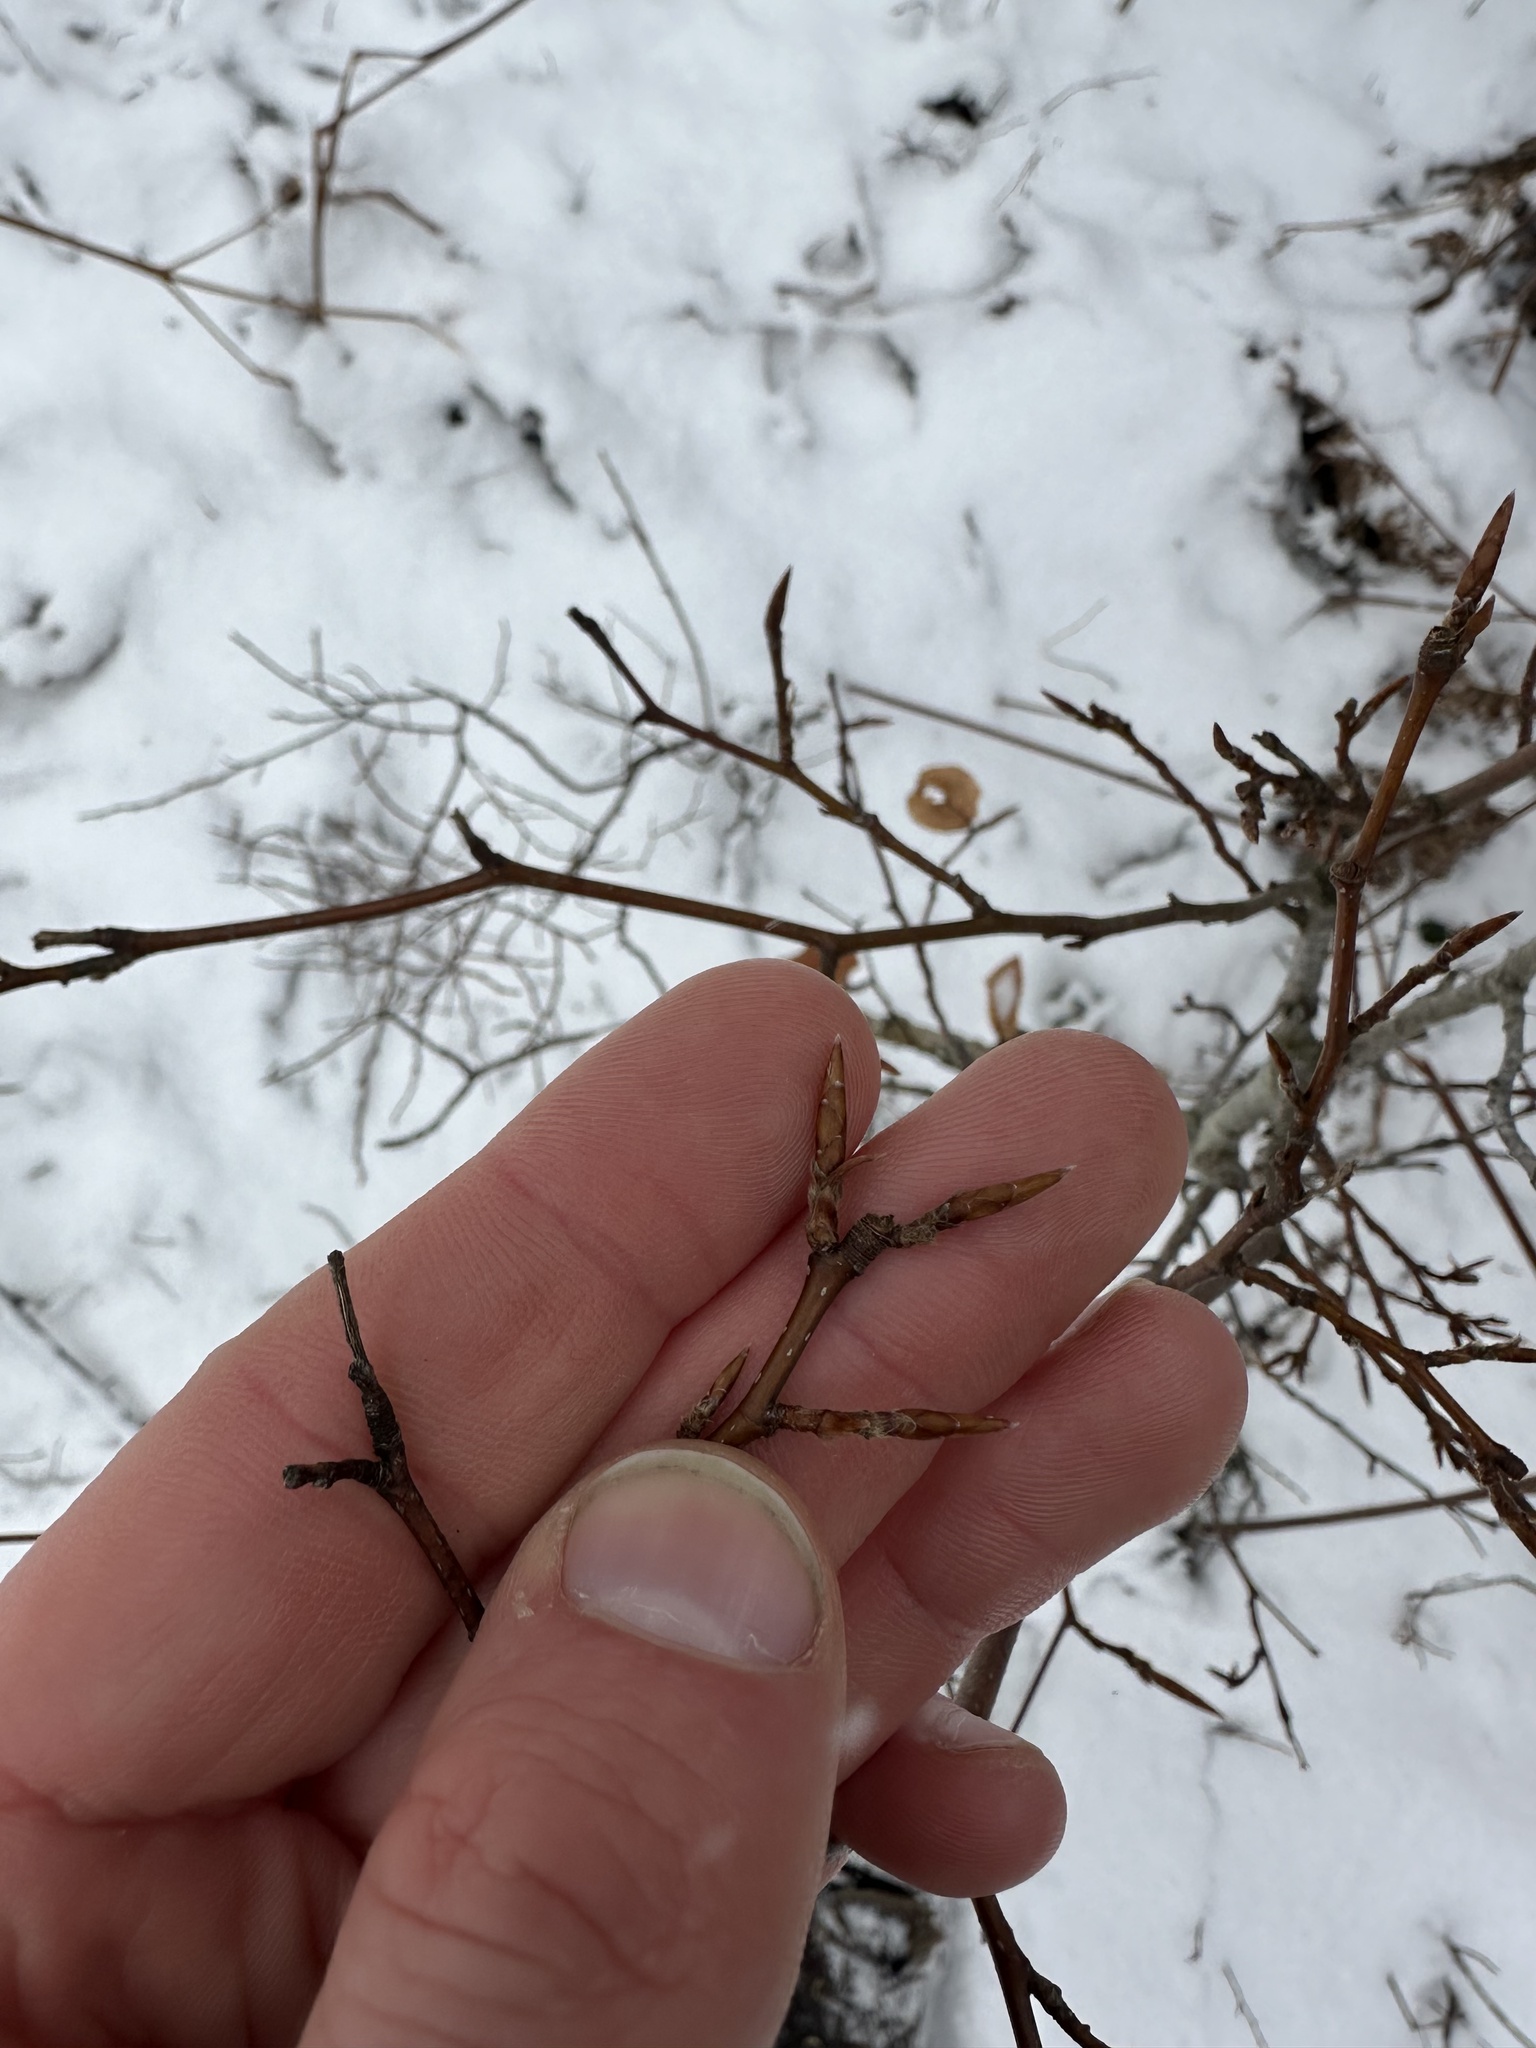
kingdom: Plantae
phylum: Tracheophyta
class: Magnoliopsida
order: Fagales
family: Fagaceae
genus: Fagus
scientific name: Fagus grandifolia
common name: American beech
